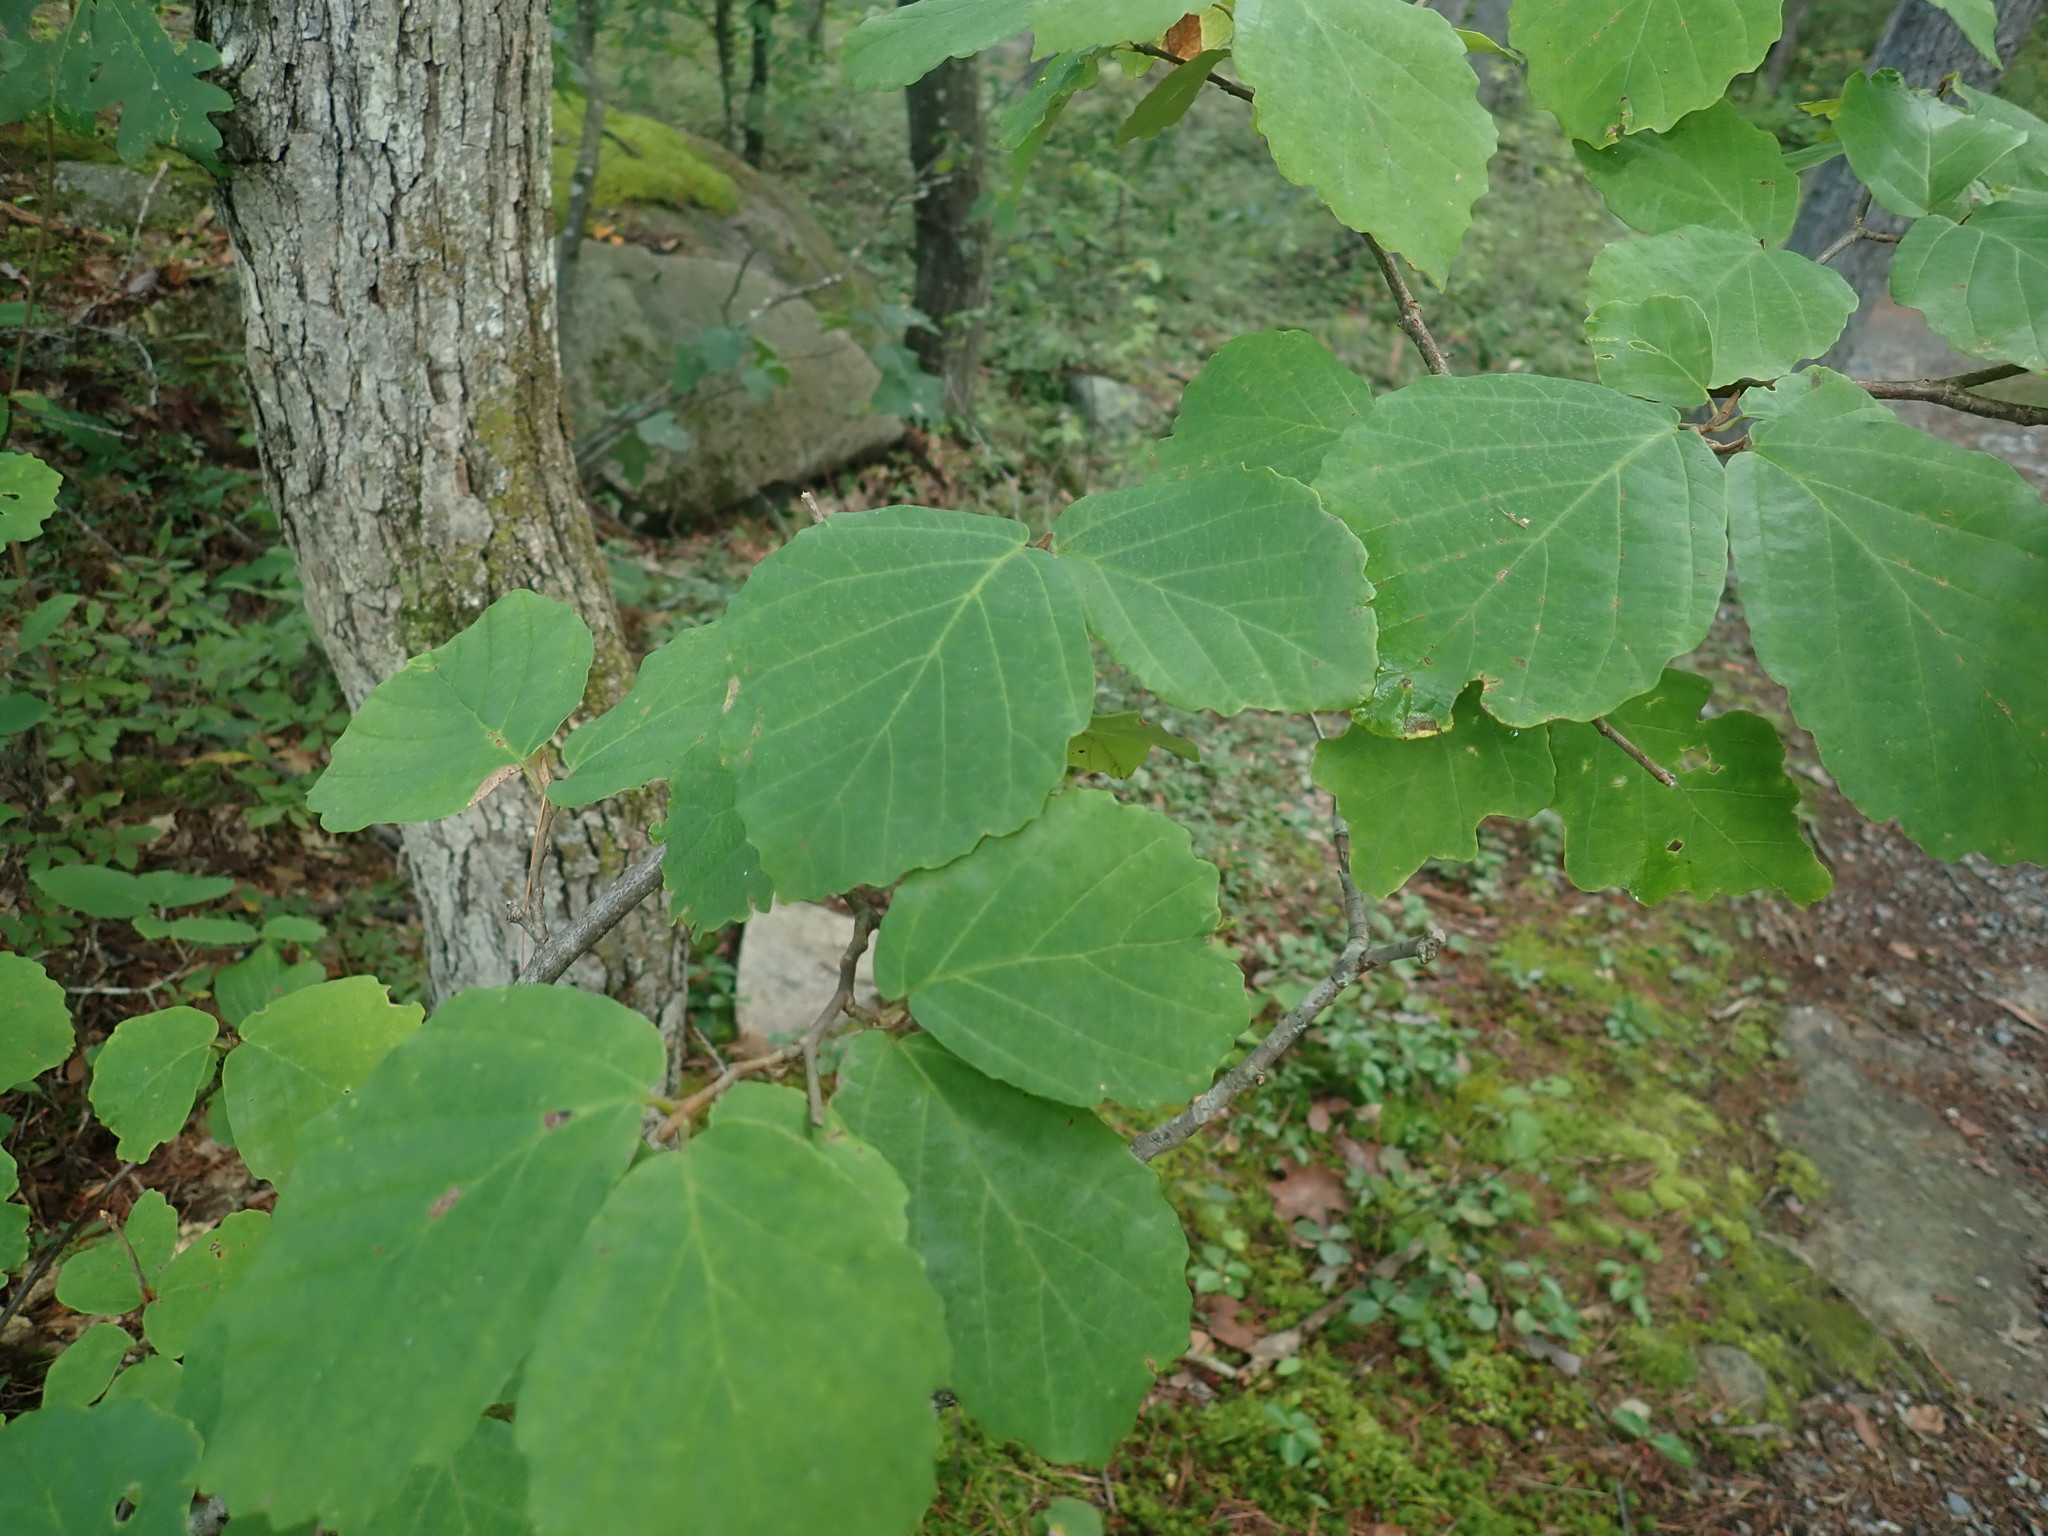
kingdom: Plantae
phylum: Tracheophyta
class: Magnoliopsida
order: Saxifragales
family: Hamamelidaceae
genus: Hamamelis
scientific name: Hamamelis virginiana
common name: Witch-hazel
